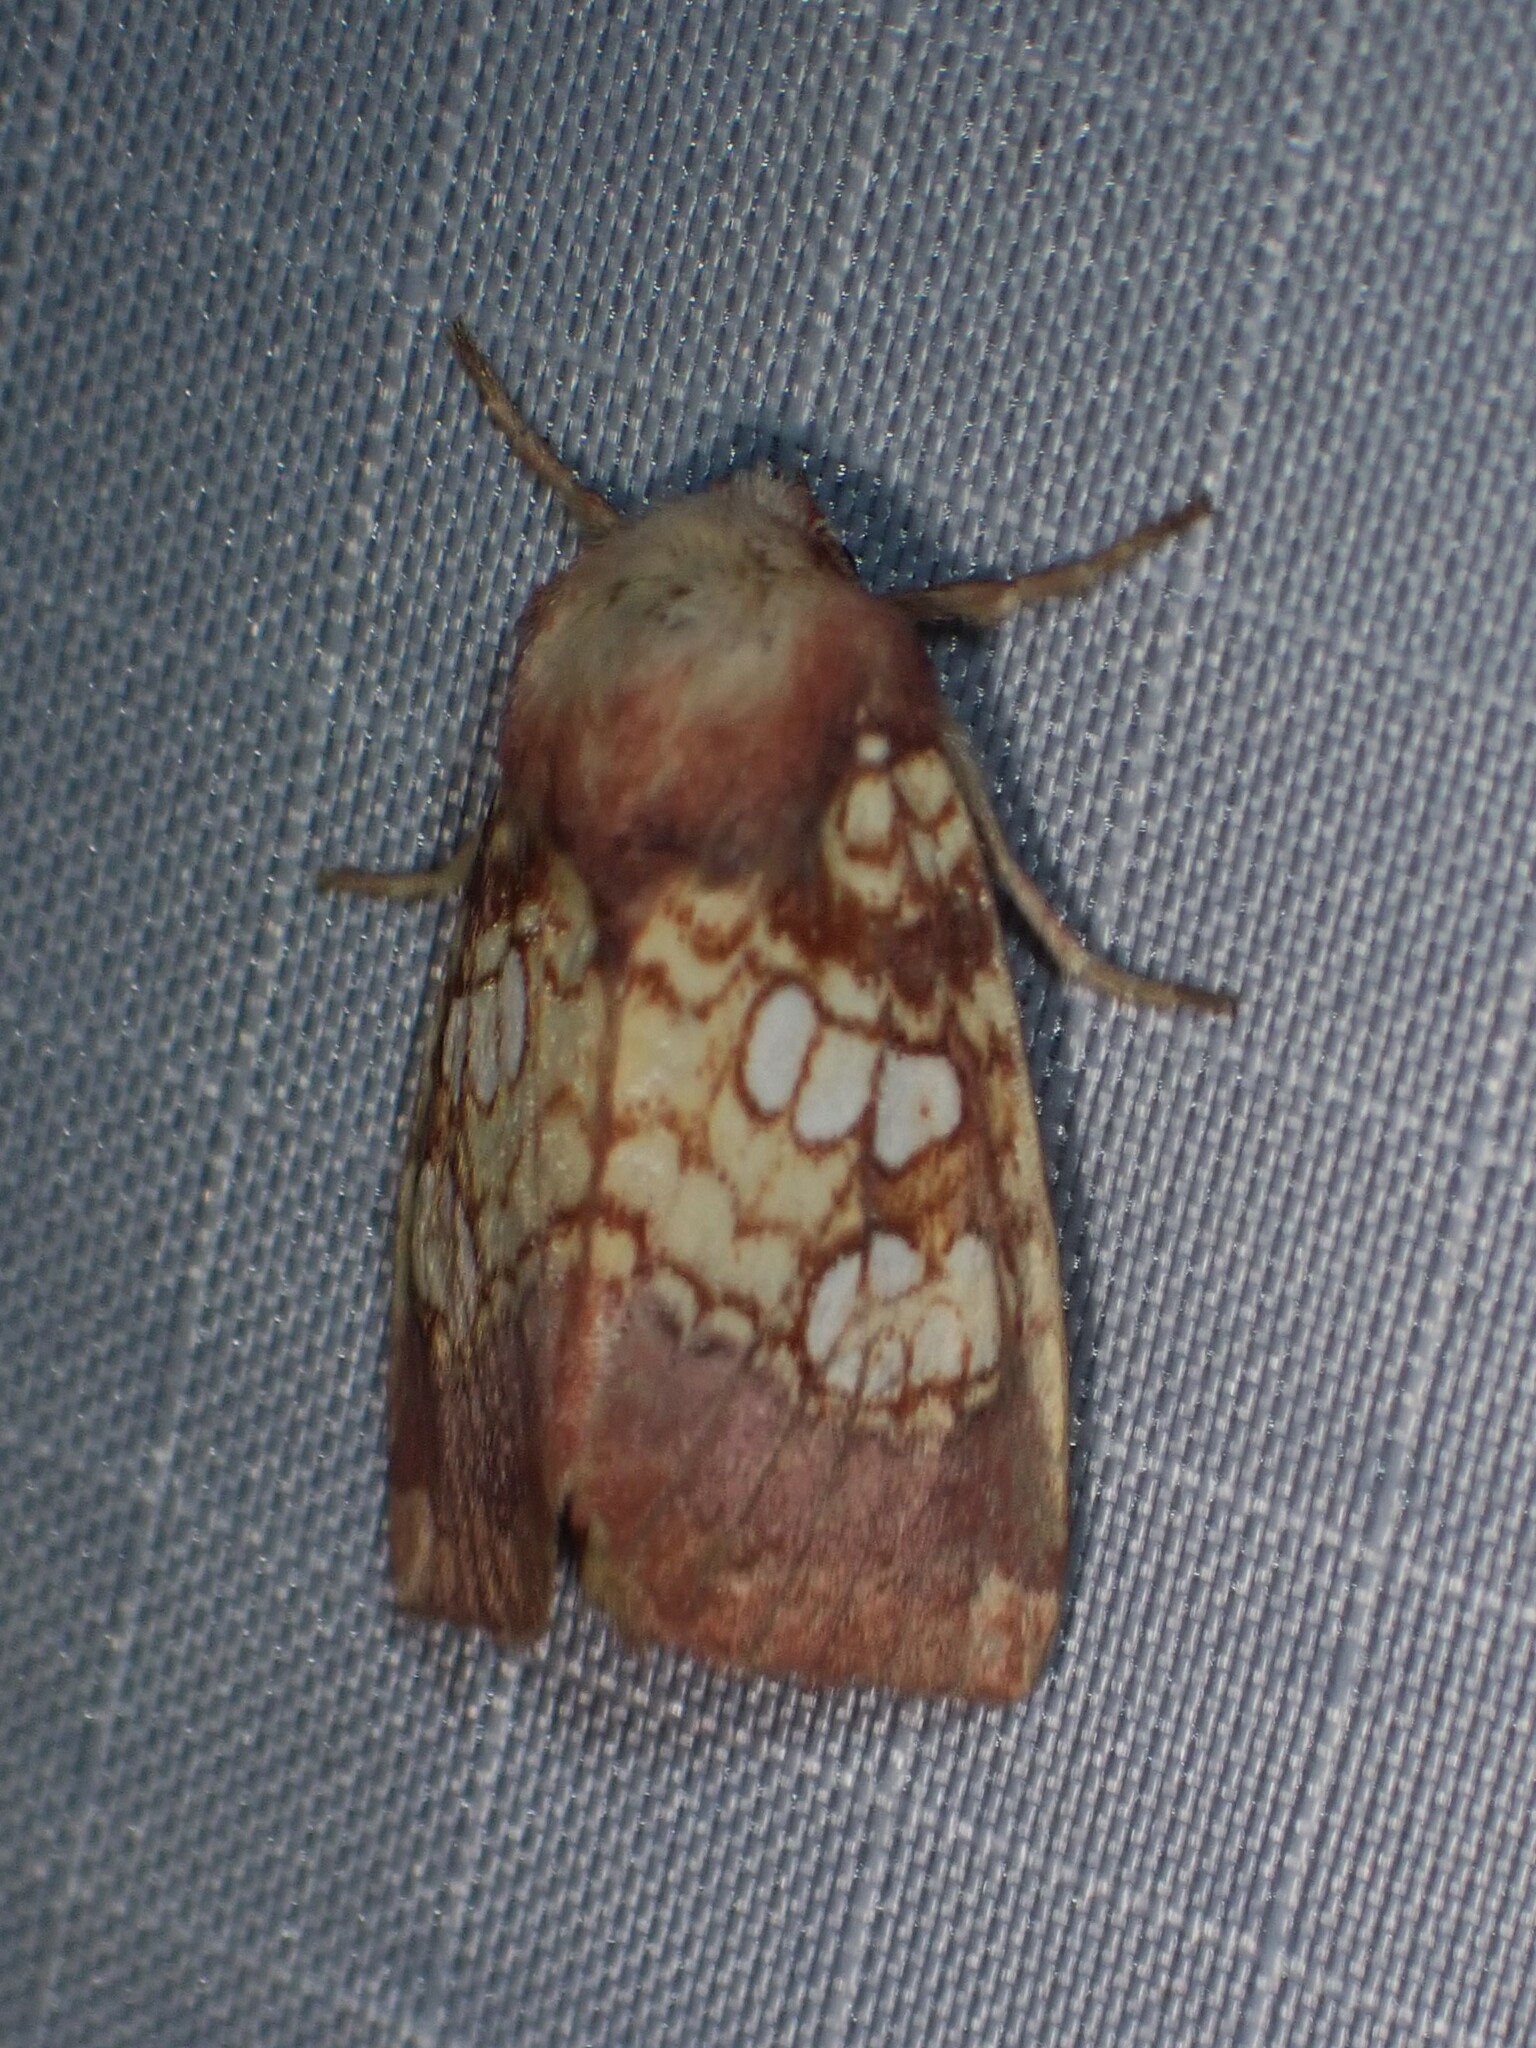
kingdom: Animalia
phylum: Arthropoda
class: Insecta
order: Lepidoptera
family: Noctuidae
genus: Papaipema
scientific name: Papaipema appassionata
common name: Pitcher plant borer moth
